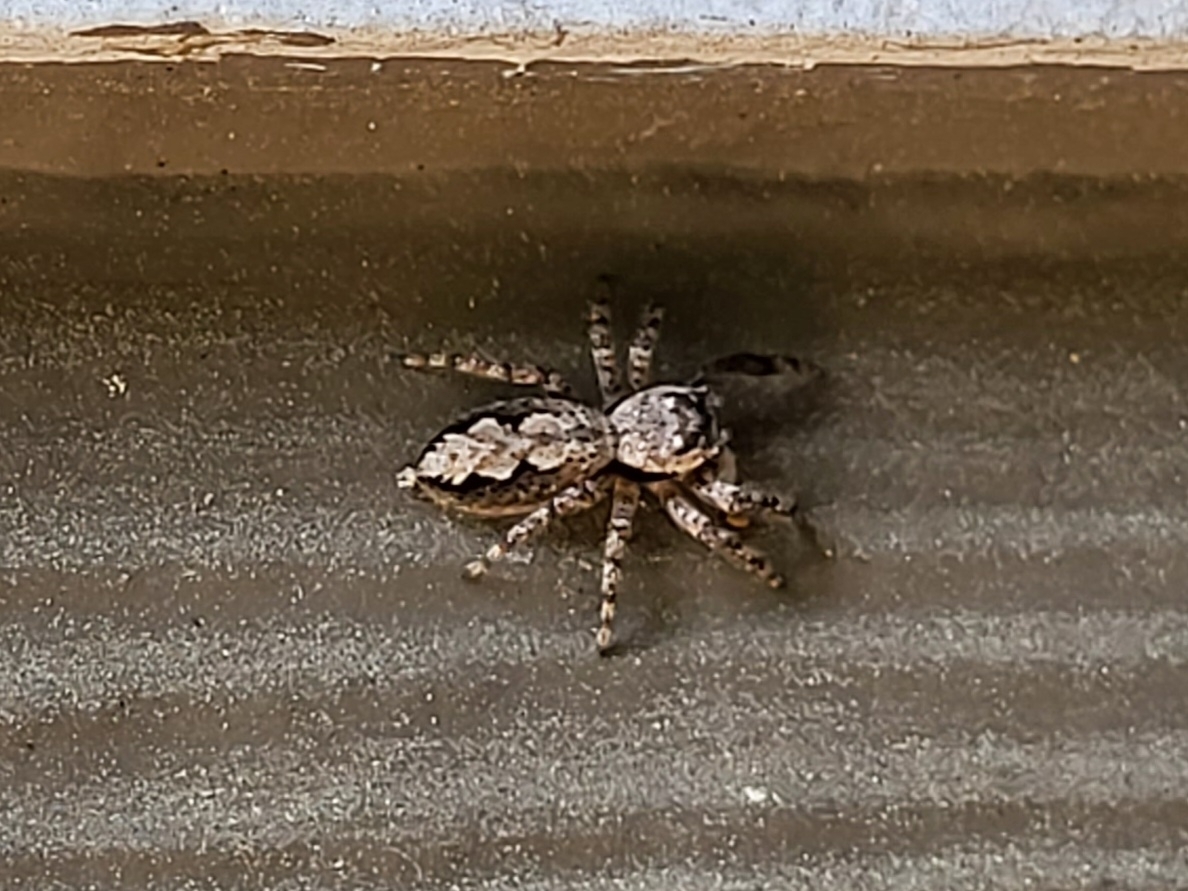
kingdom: Animalia
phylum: Arthropoda
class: Arachnida
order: Araneae
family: Salticidae
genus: Platycryptus
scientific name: Platycryptus undatus
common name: Tan jumping spider
